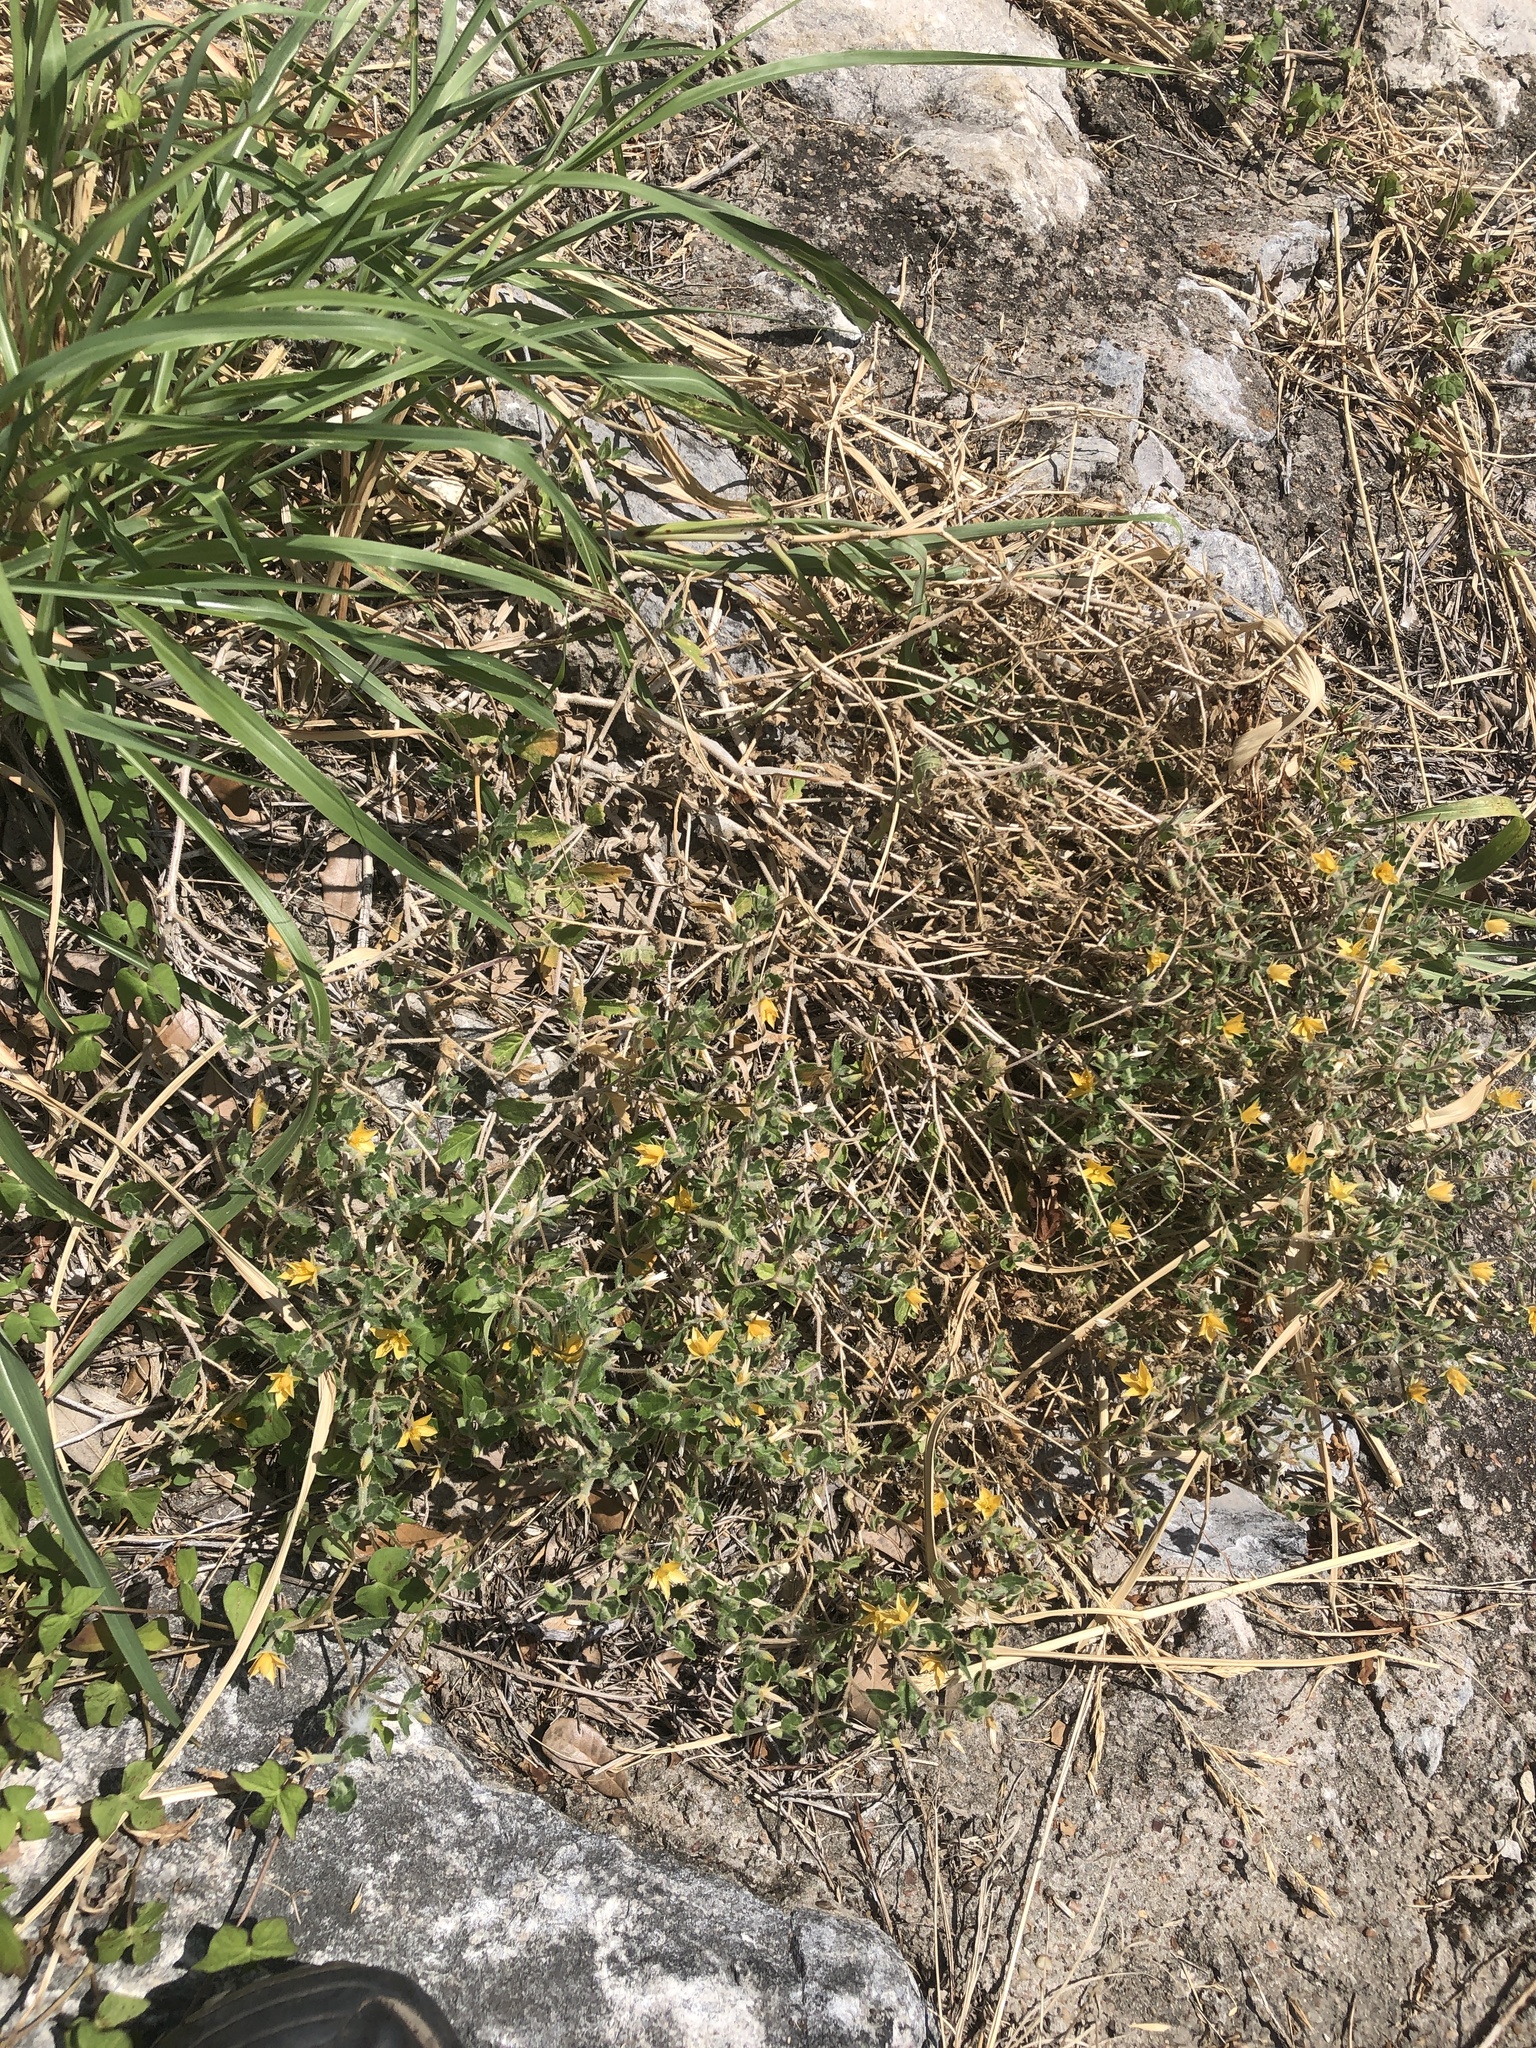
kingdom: Plantae
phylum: Tracheophyta
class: Magnoliopsida
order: Cornales
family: Loasaceae
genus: Mentzelia
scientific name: Mentzelia oligosperma
